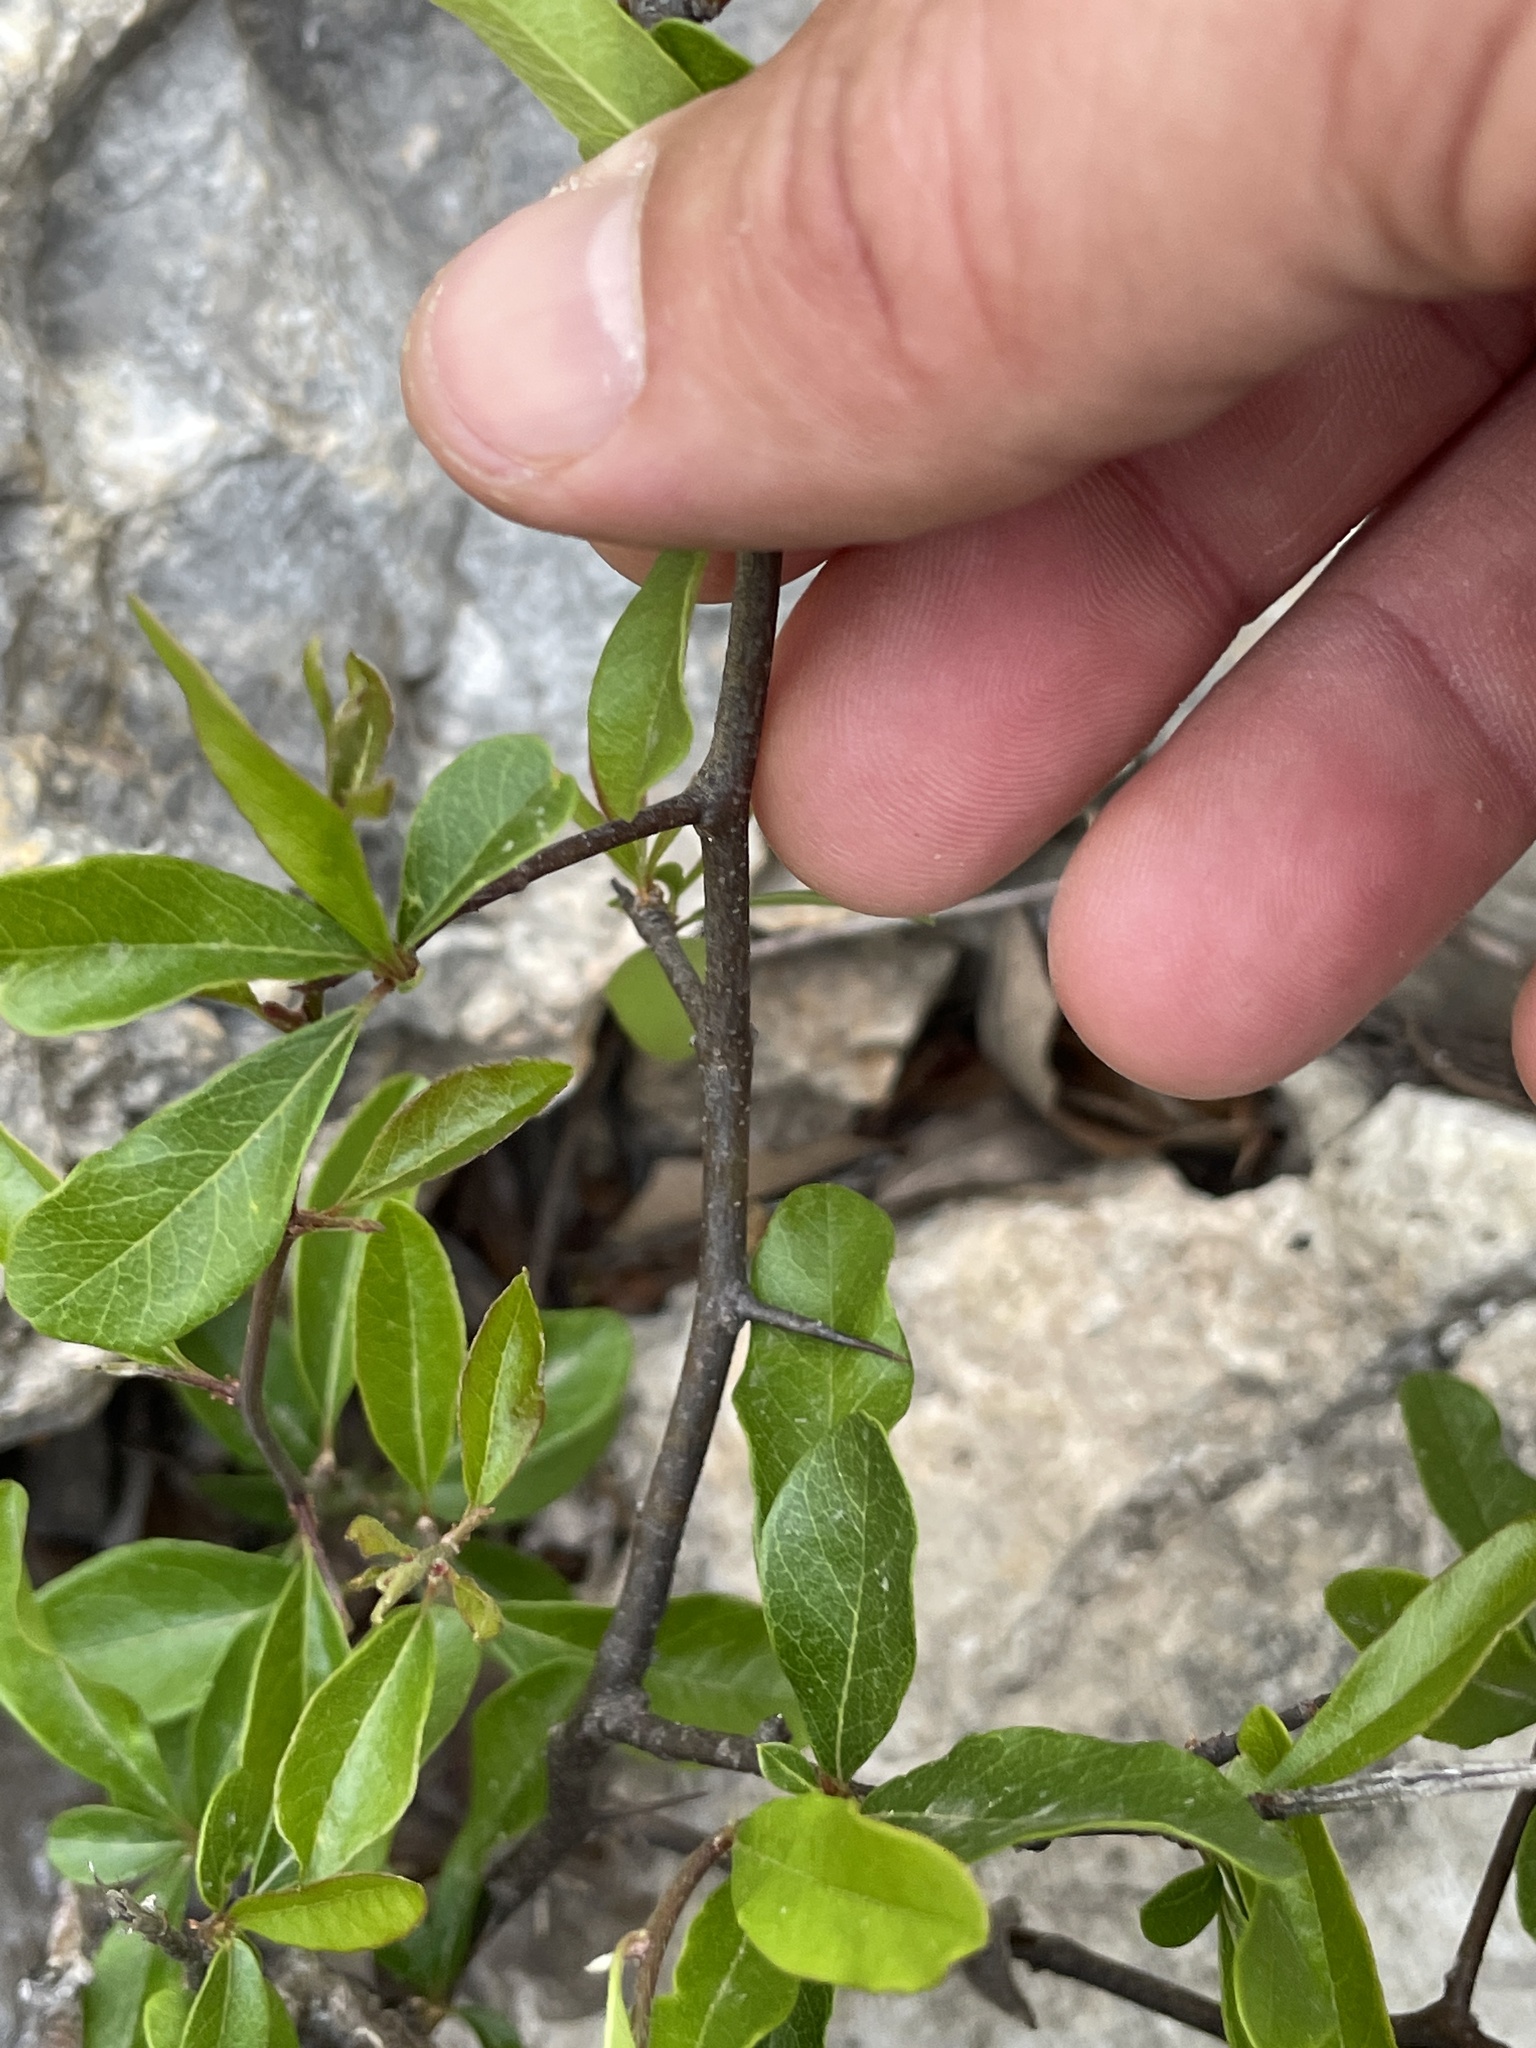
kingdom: Plantae
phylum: Tracheophyta
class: Magnoliopsida
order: Ericales
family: Sapotaceae
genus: Sideroxylon
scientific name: Sideroxylon lanuginosum
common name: Chittamwood
